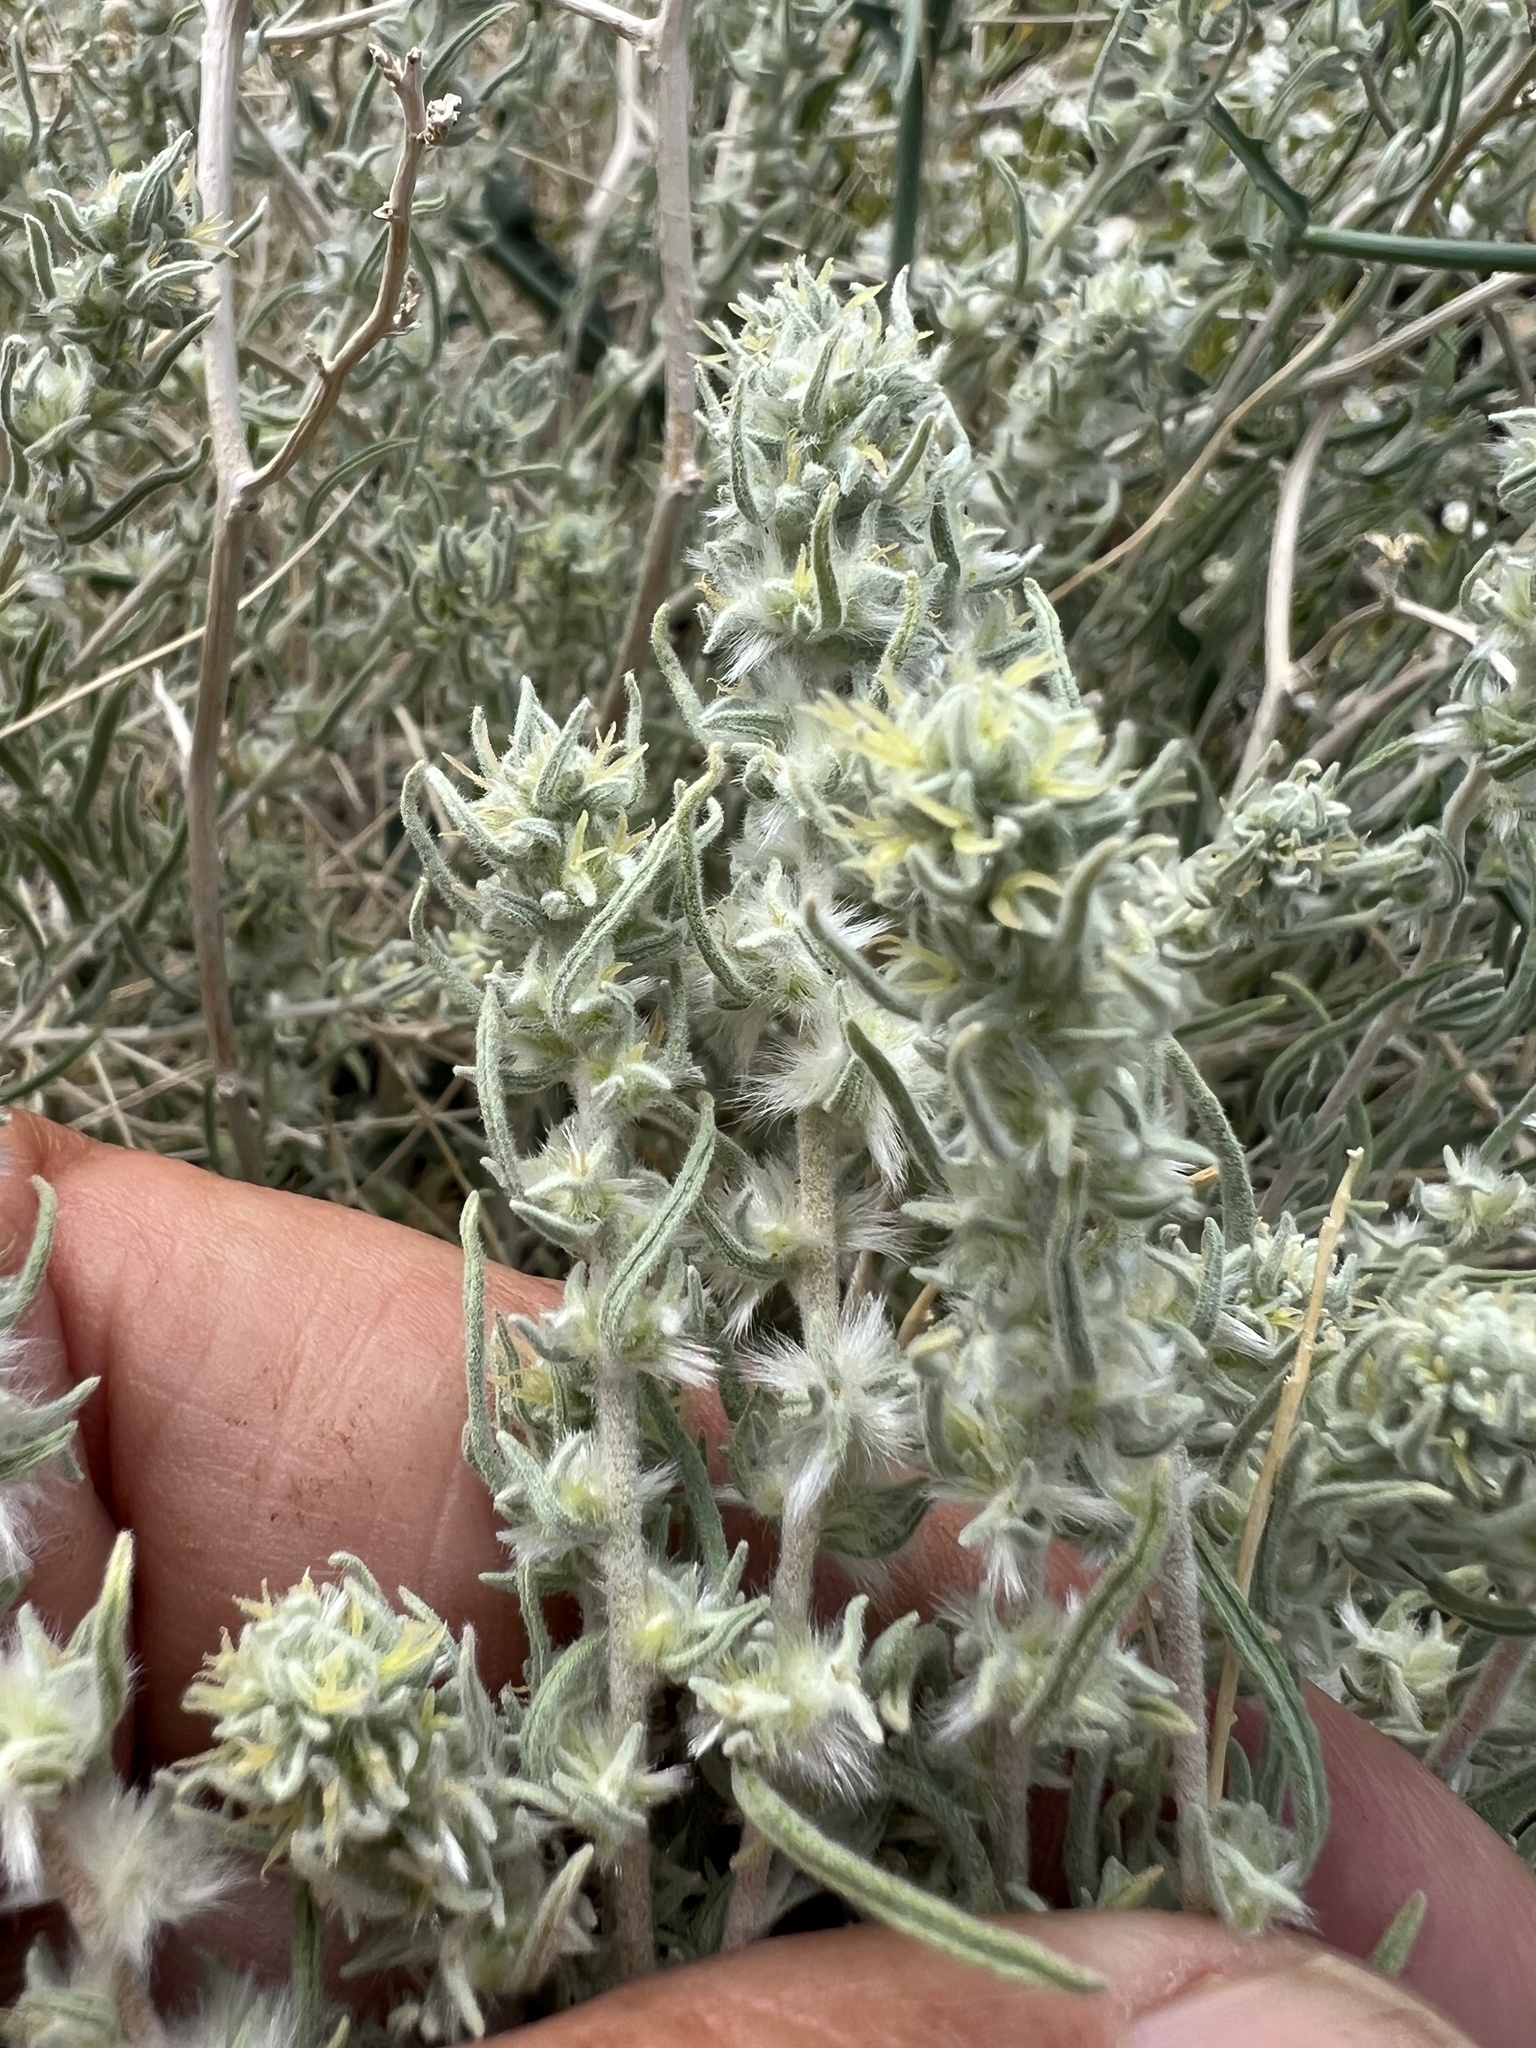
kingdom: Plantae
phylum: Tracheophyta
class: Magnoliopsida
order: Caryophyllales
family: Amaranthaceae
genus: Krascheninnikovia
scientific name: Krascheninnikovia lanata
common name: Winterfat
